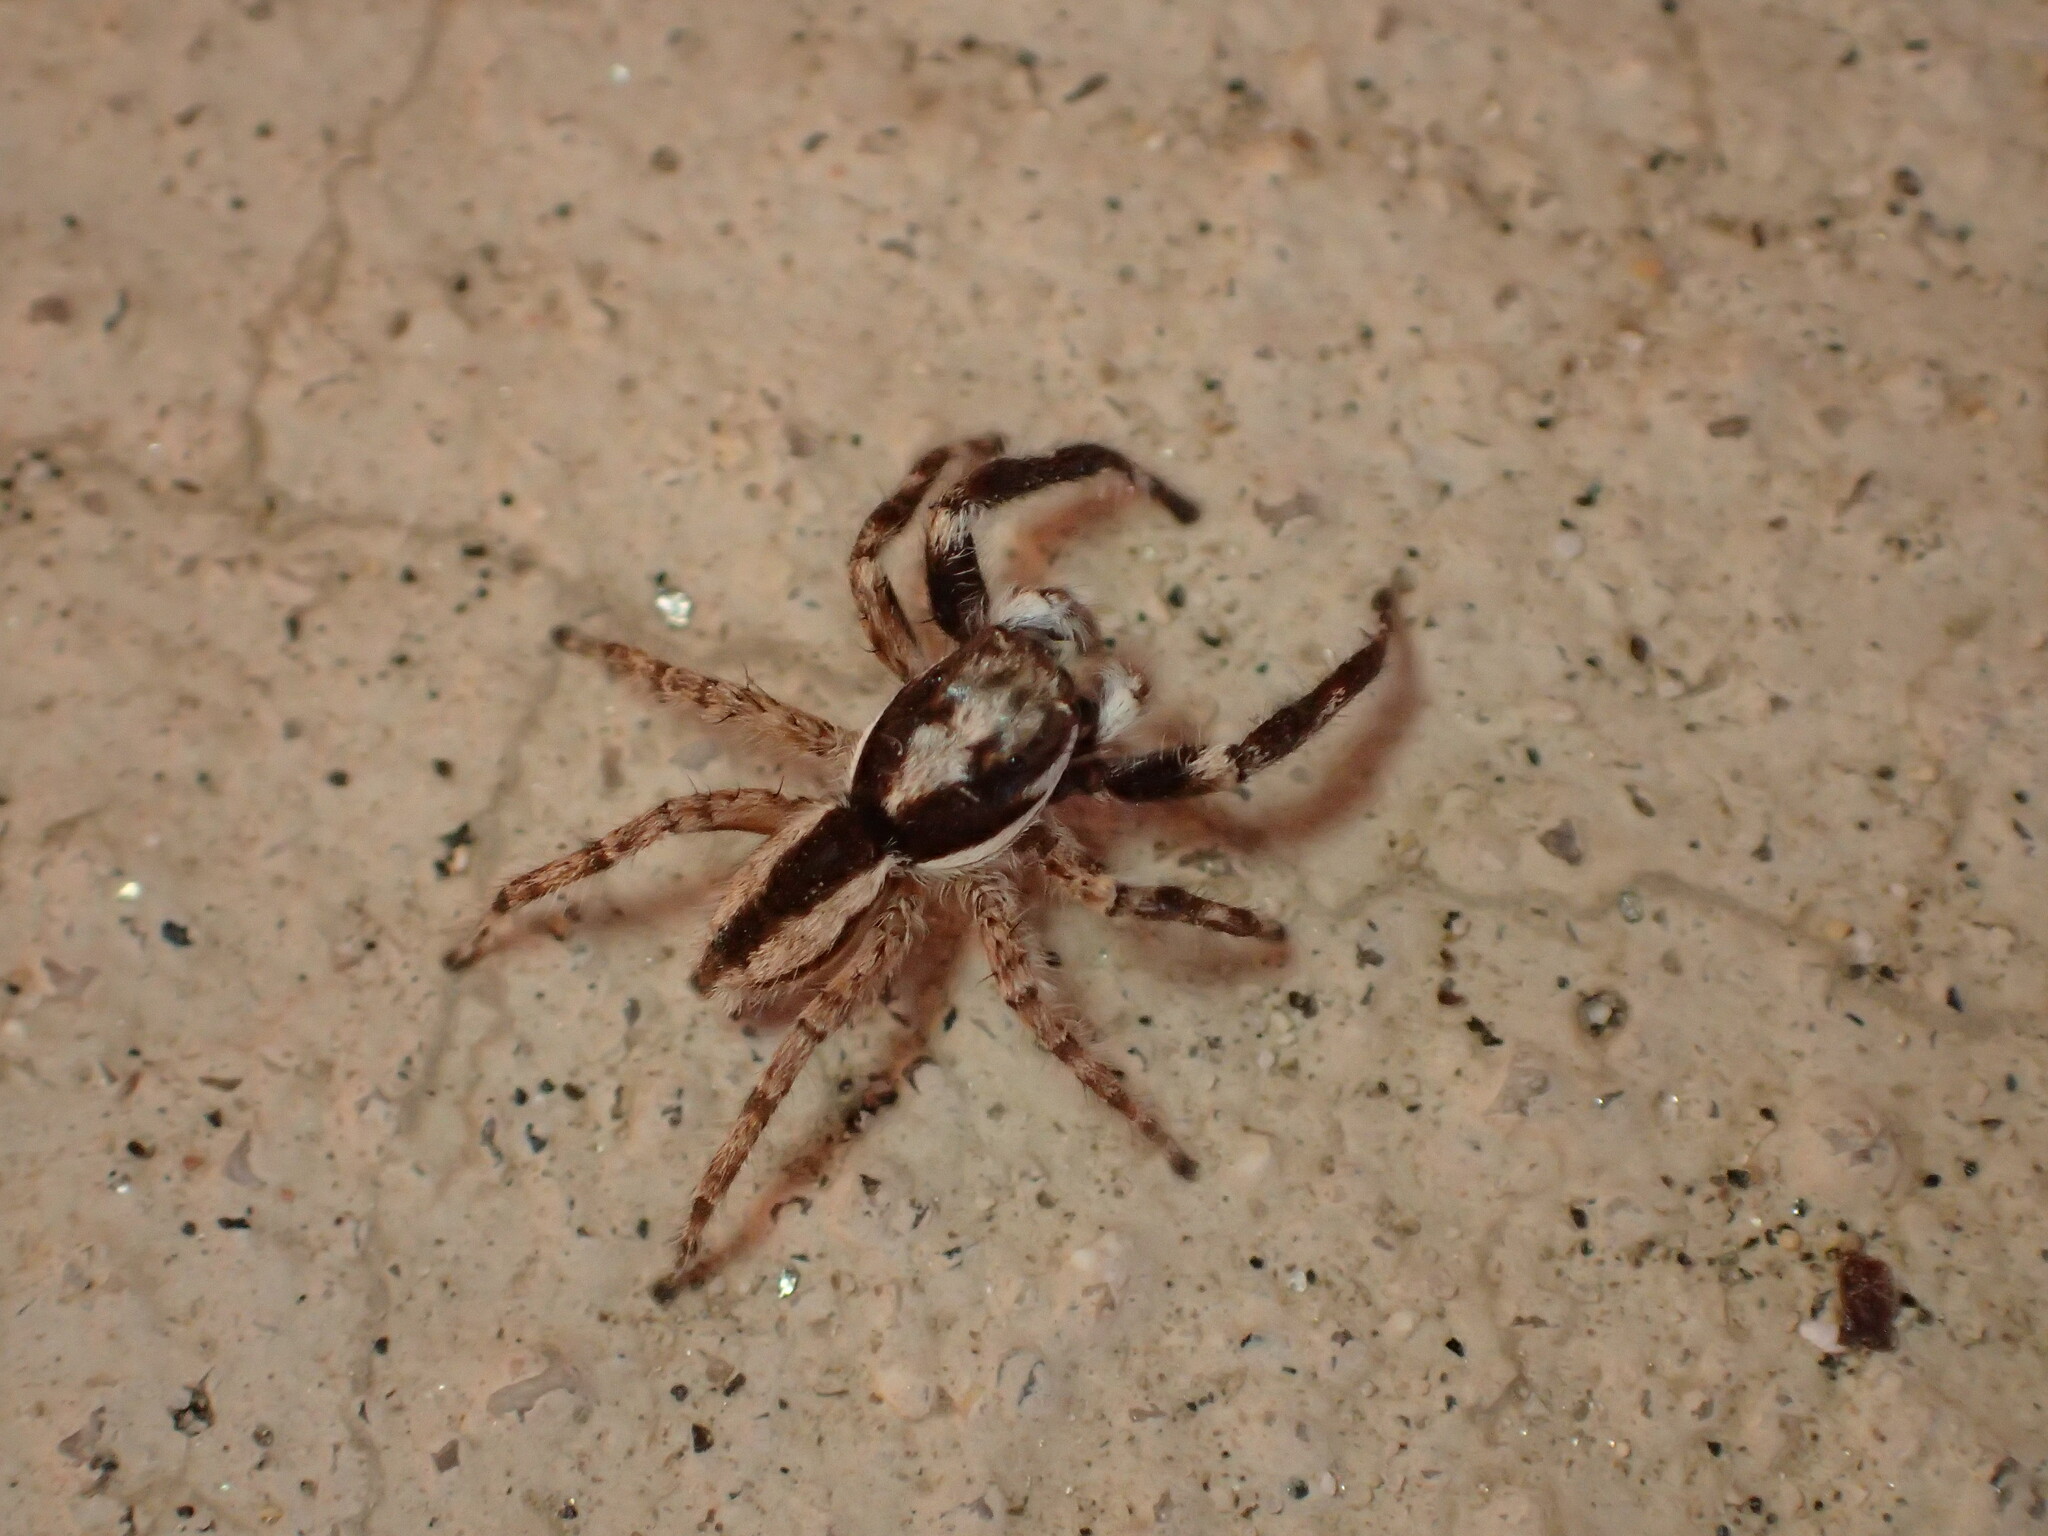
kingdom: Animalia
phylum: Arthropoda
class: Arachnida
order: Araneae
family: Salticidae
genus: Menemerus
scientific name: Menemerus bivittatus
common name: Gray wall jumper
